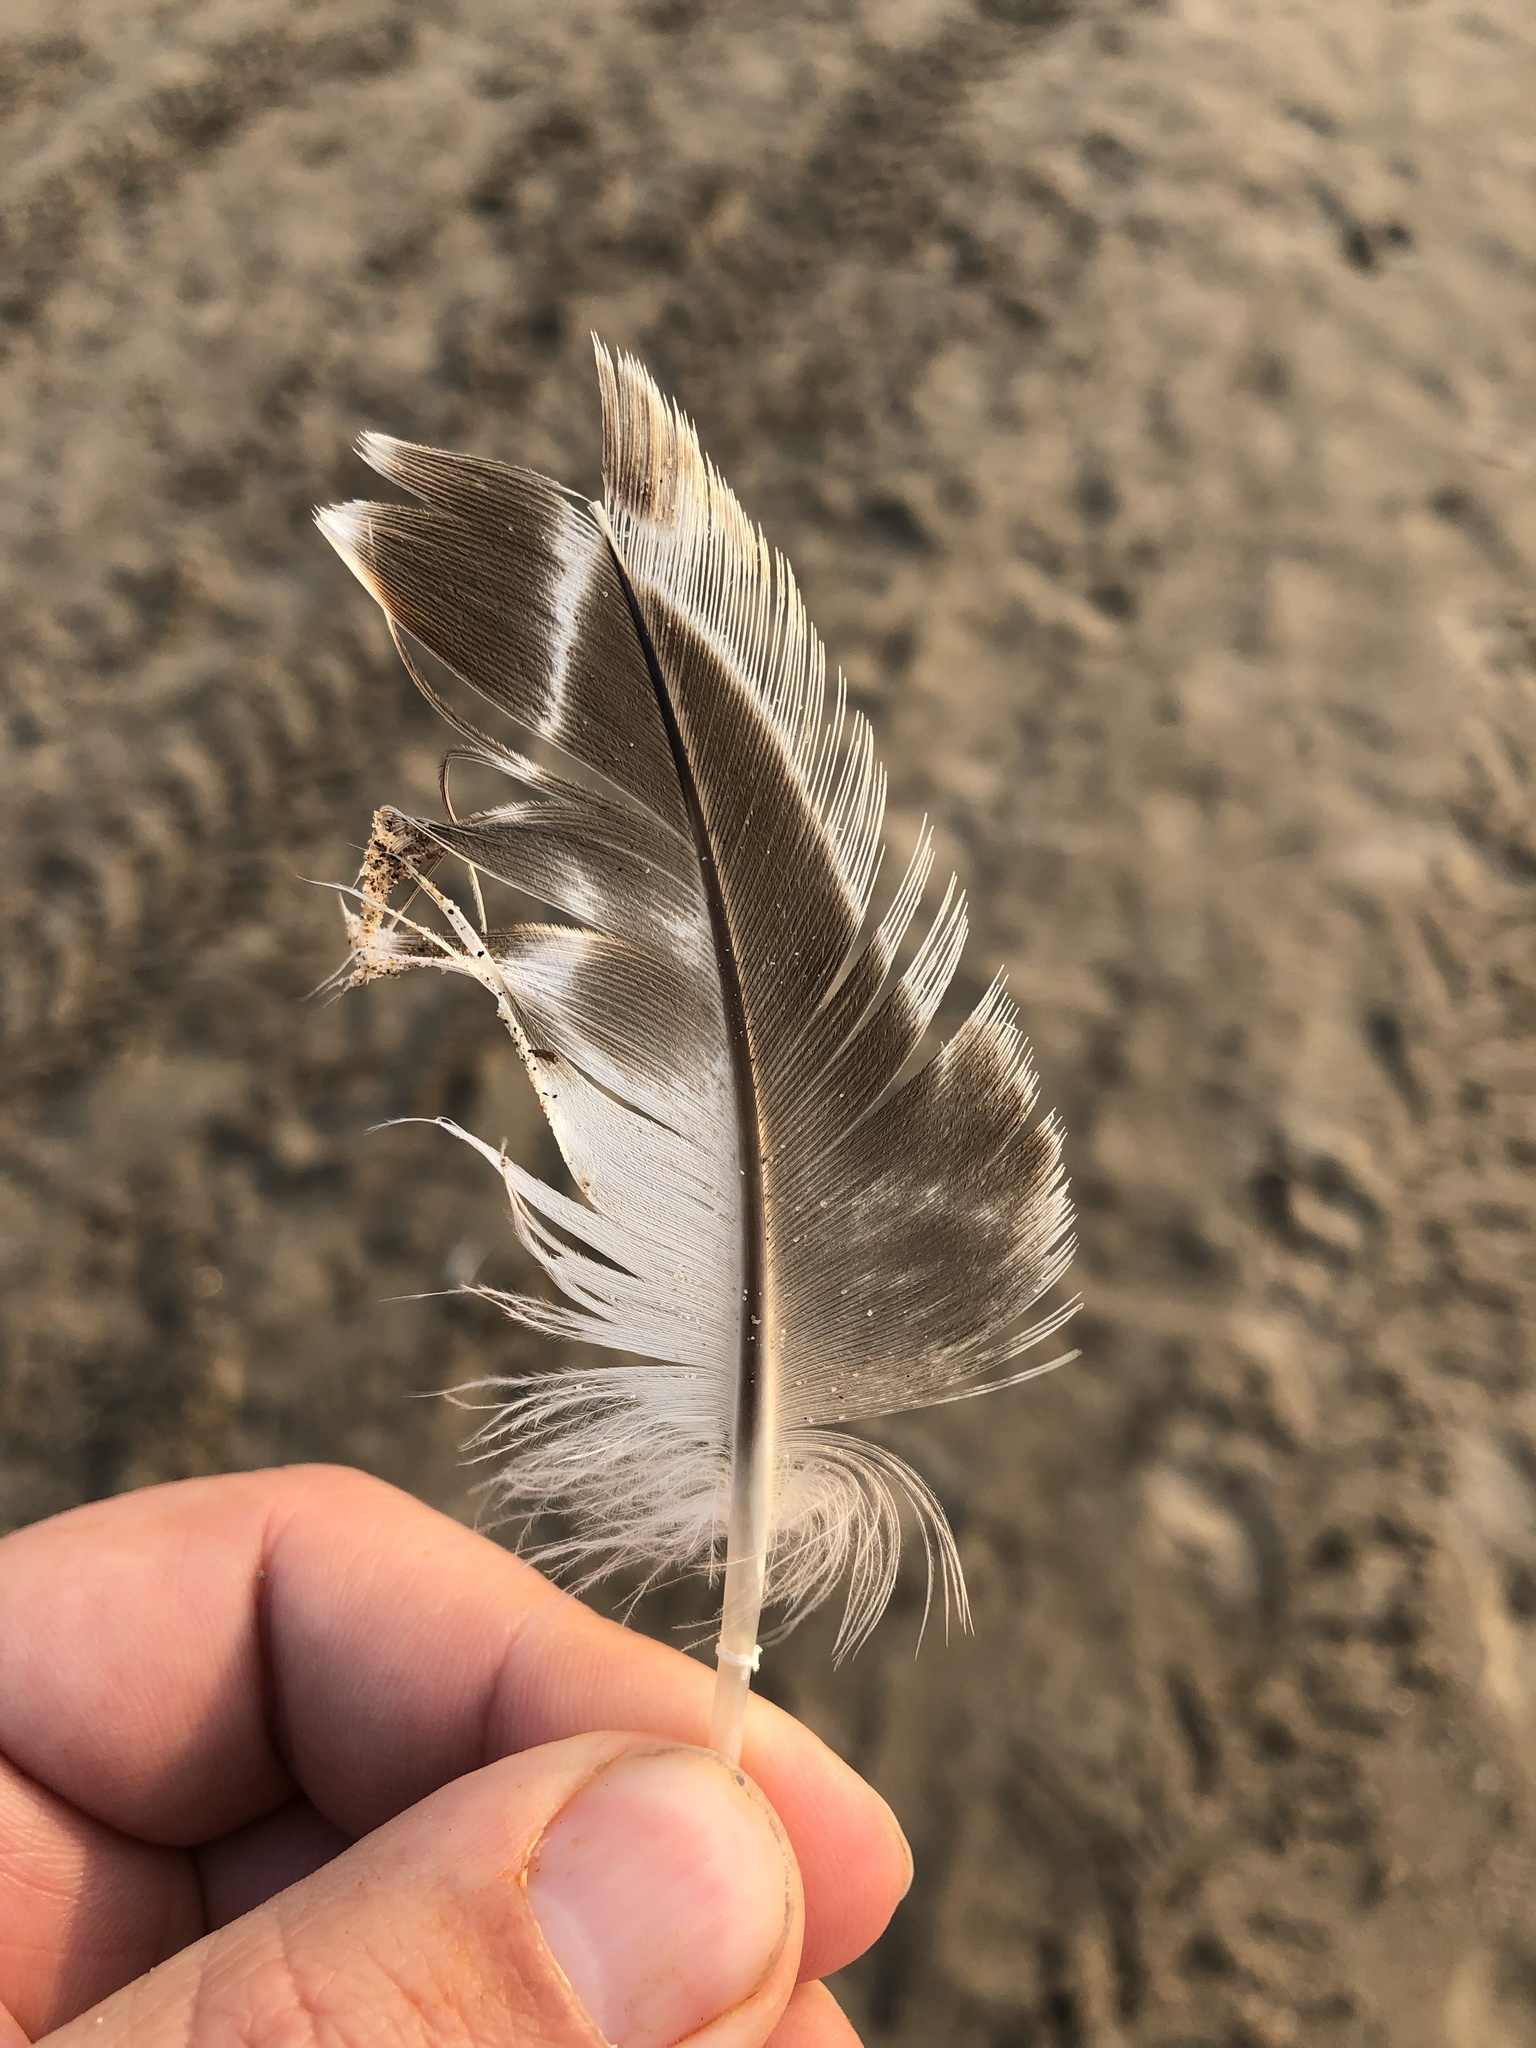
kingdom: Animalia
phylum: Chordata
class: Aves
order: Anseriformes
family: Anatidae
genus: Anas
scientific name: Anas platyrhynchos
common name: Mallard
